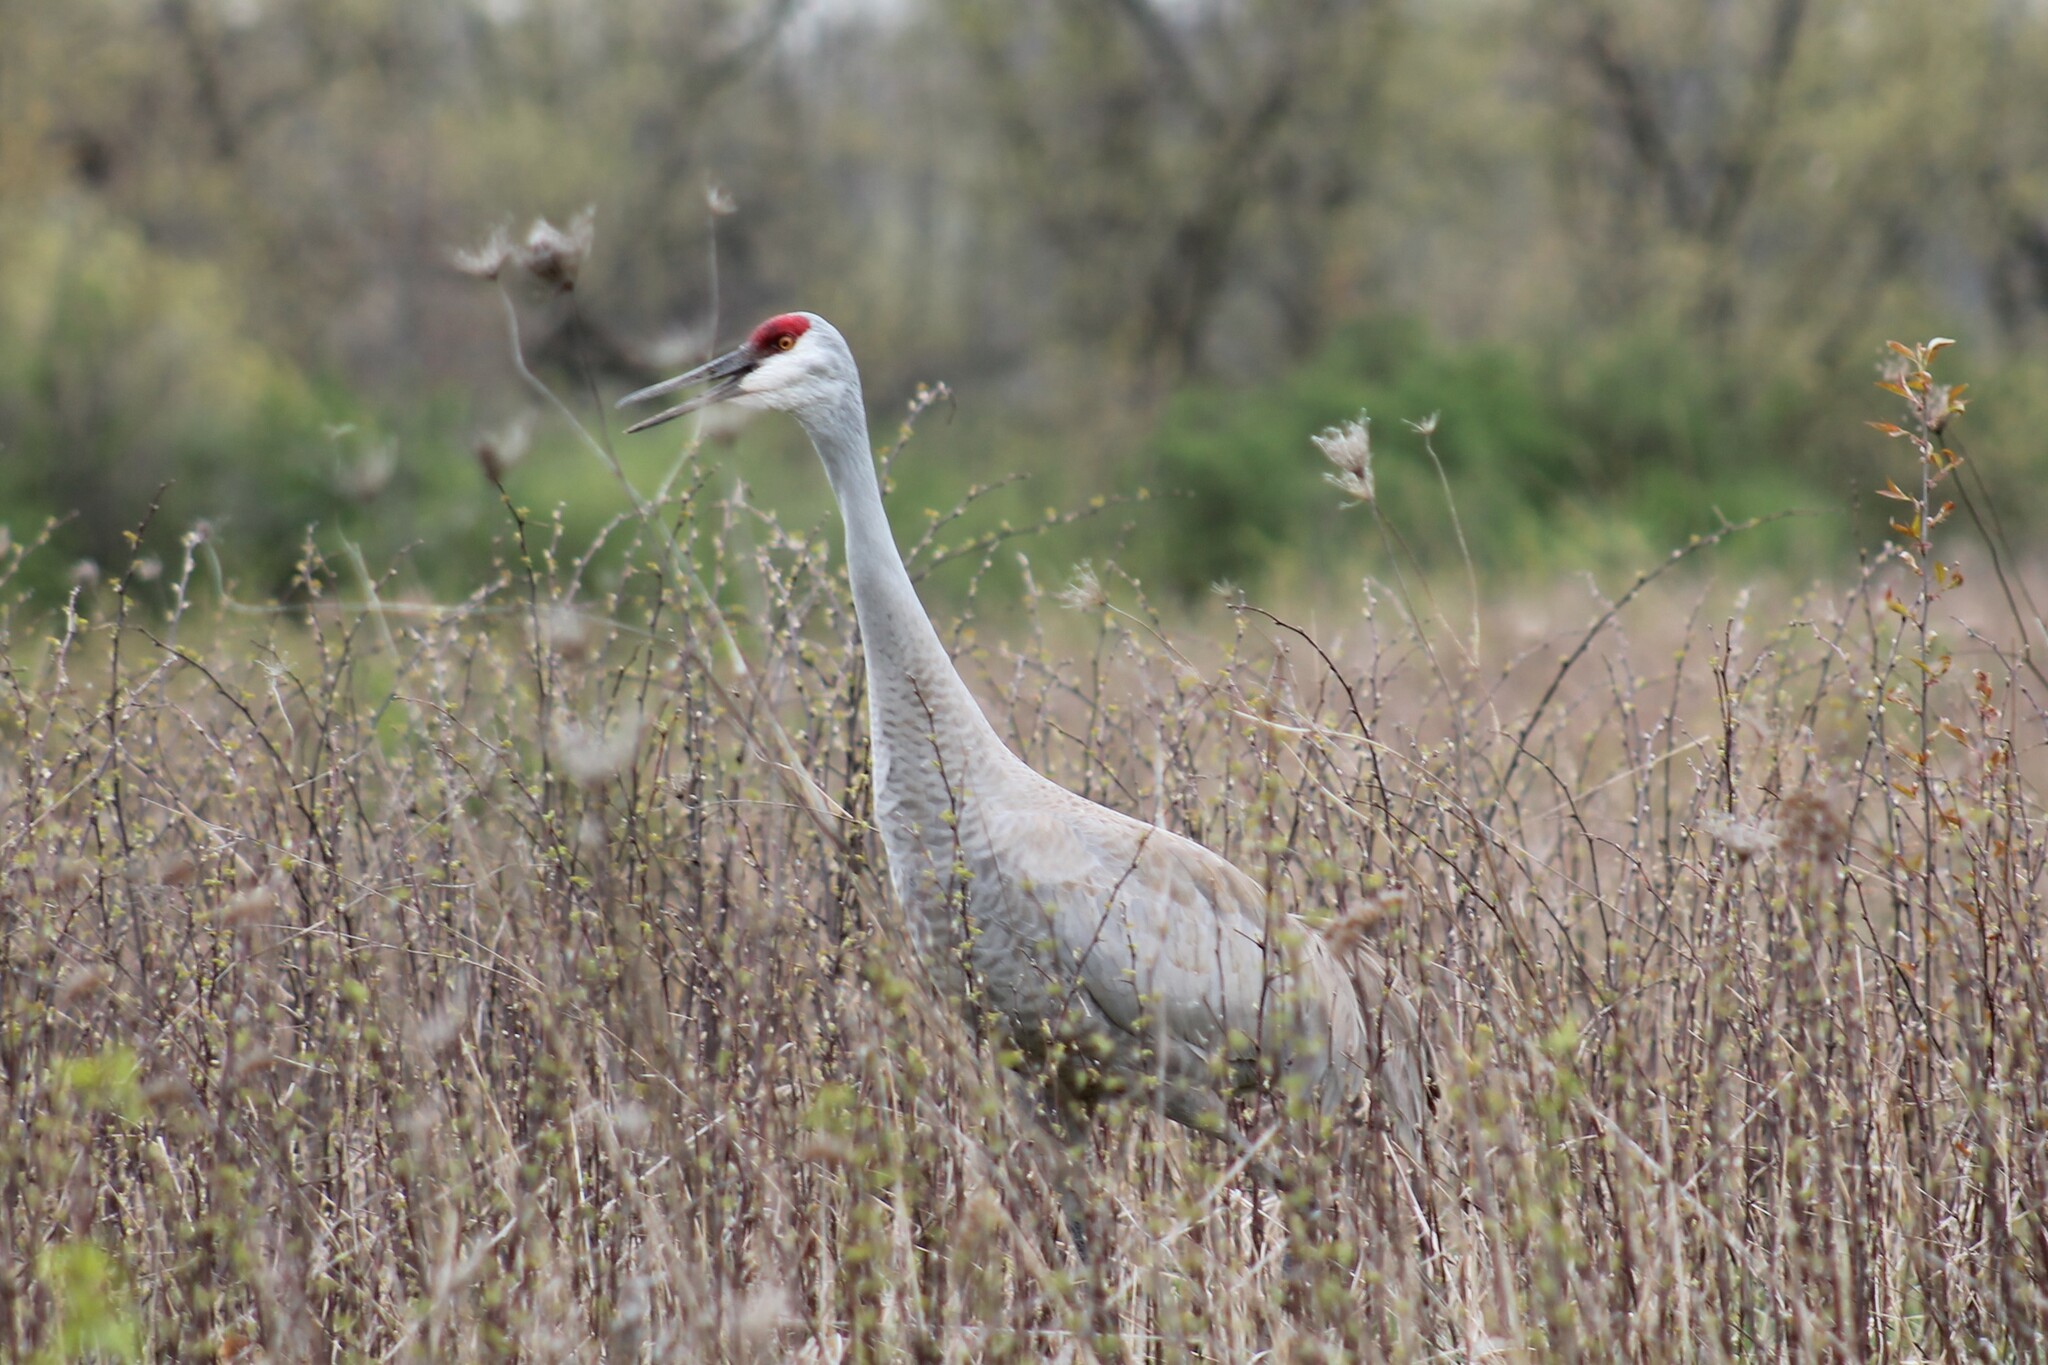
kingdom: Animalia
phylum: Chordata
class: Aves
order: Gruiformes
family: Gruidae
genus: Grus
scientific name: Grus canadensis
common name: Sandhill crane
